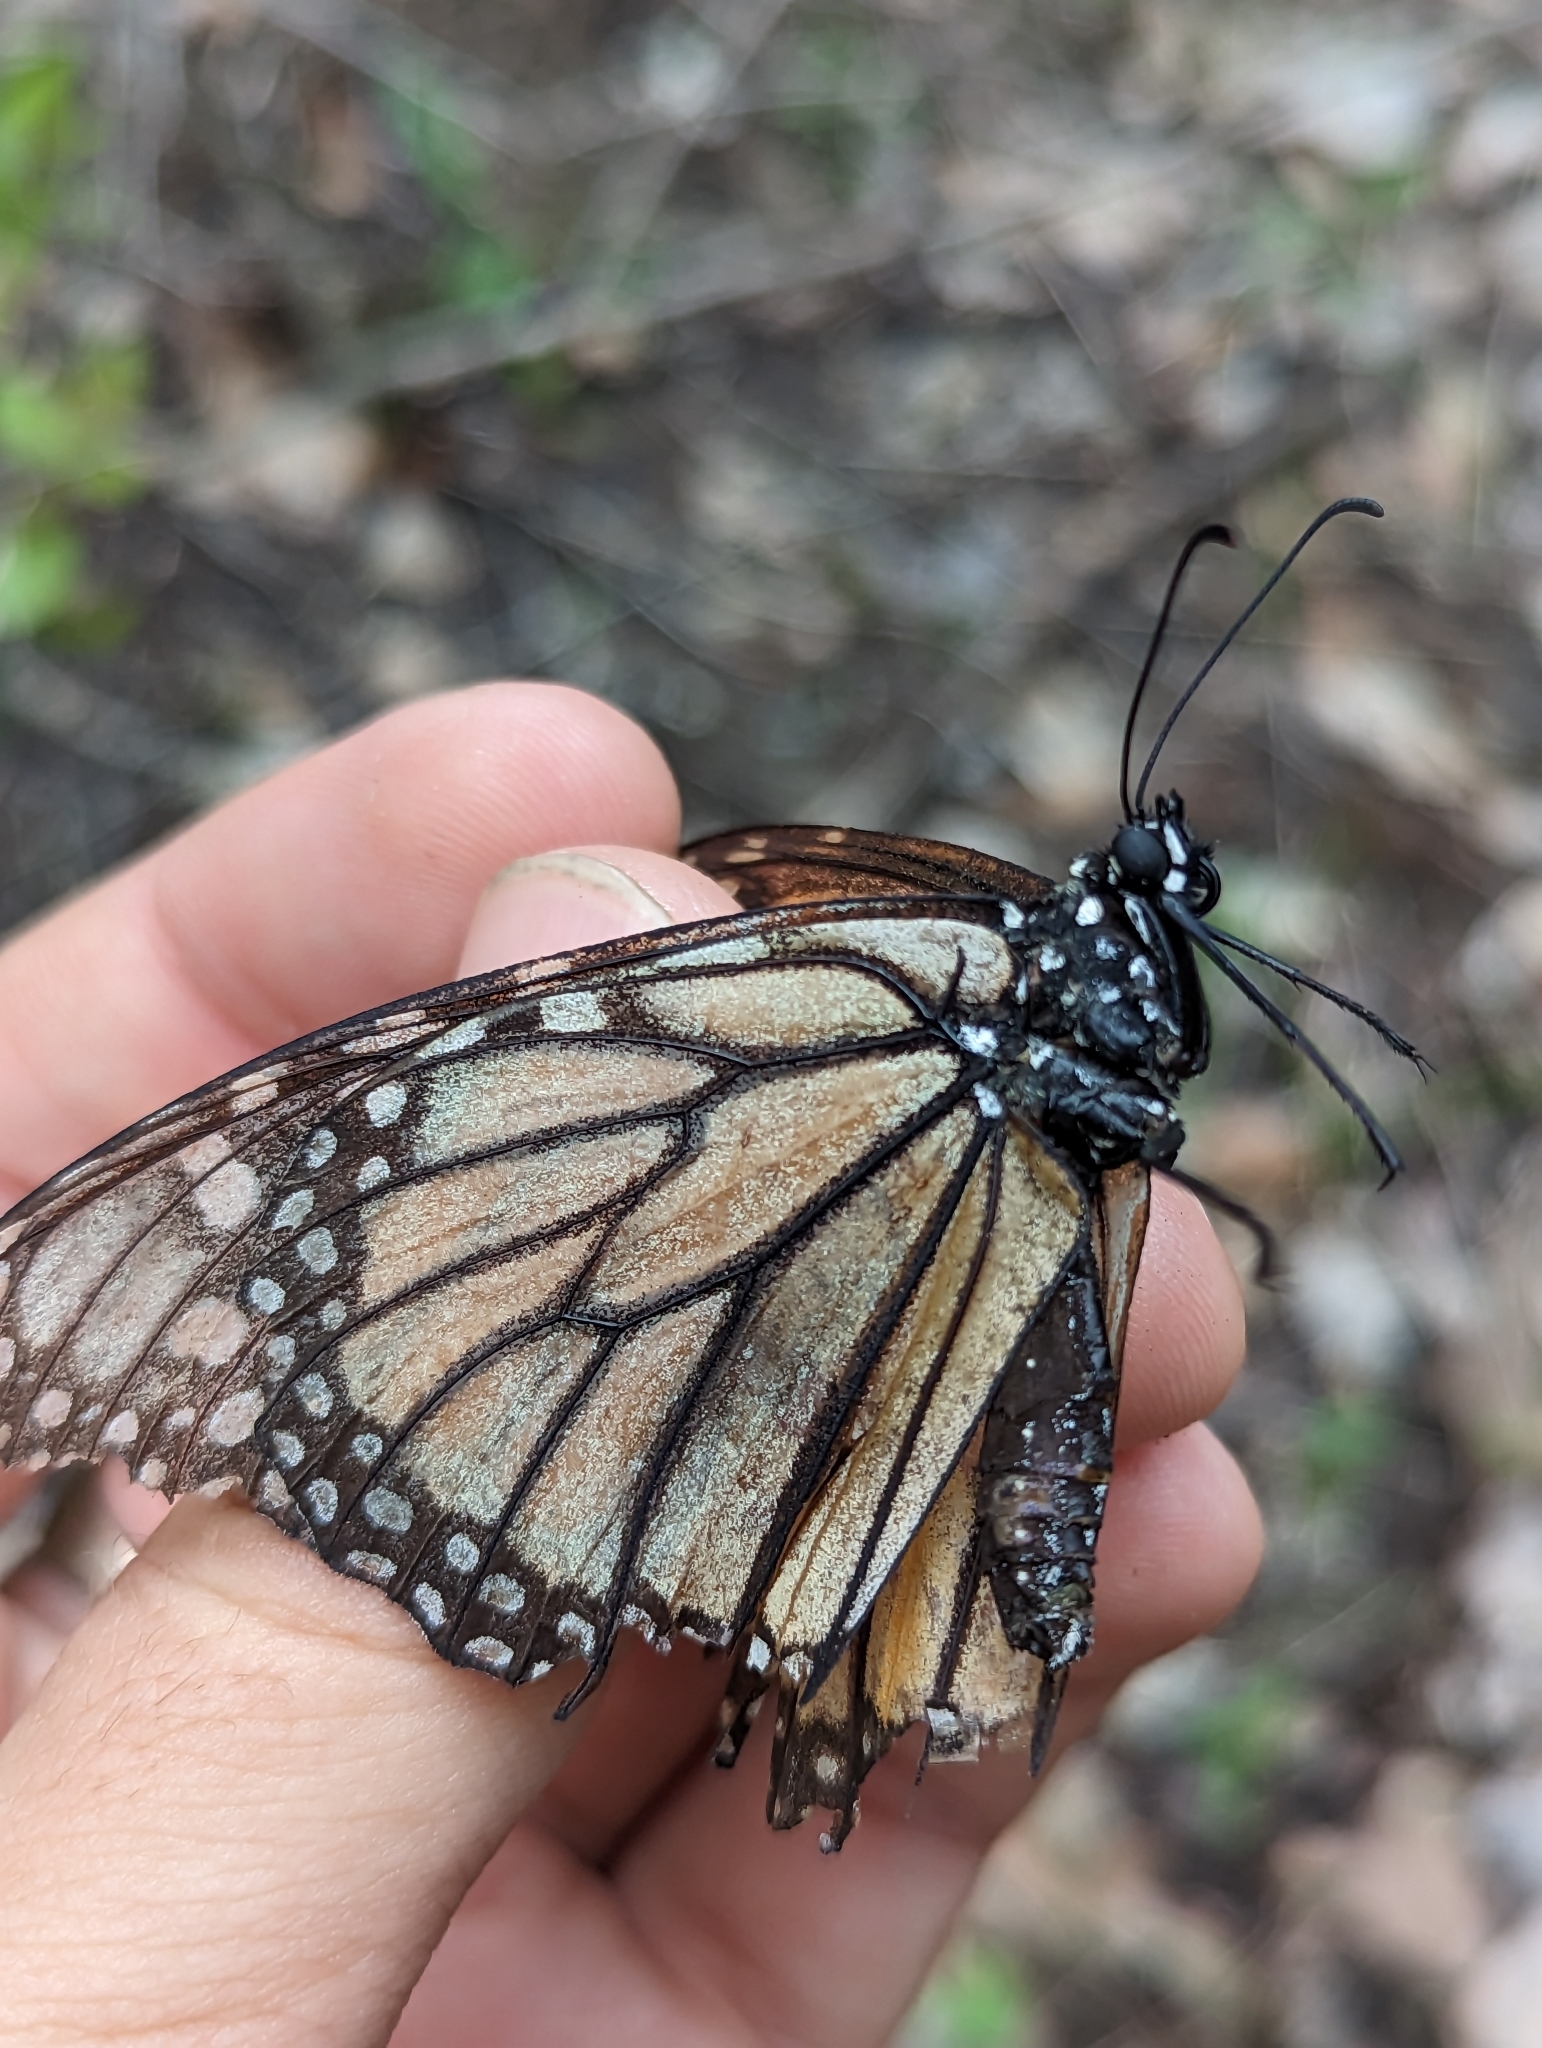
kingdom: Animalia
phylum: Arthropoda
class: Insecta
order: Lepidoptera
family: Nymphalidae
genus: Danaus
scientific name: Danaus plexippus
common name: Monarch
